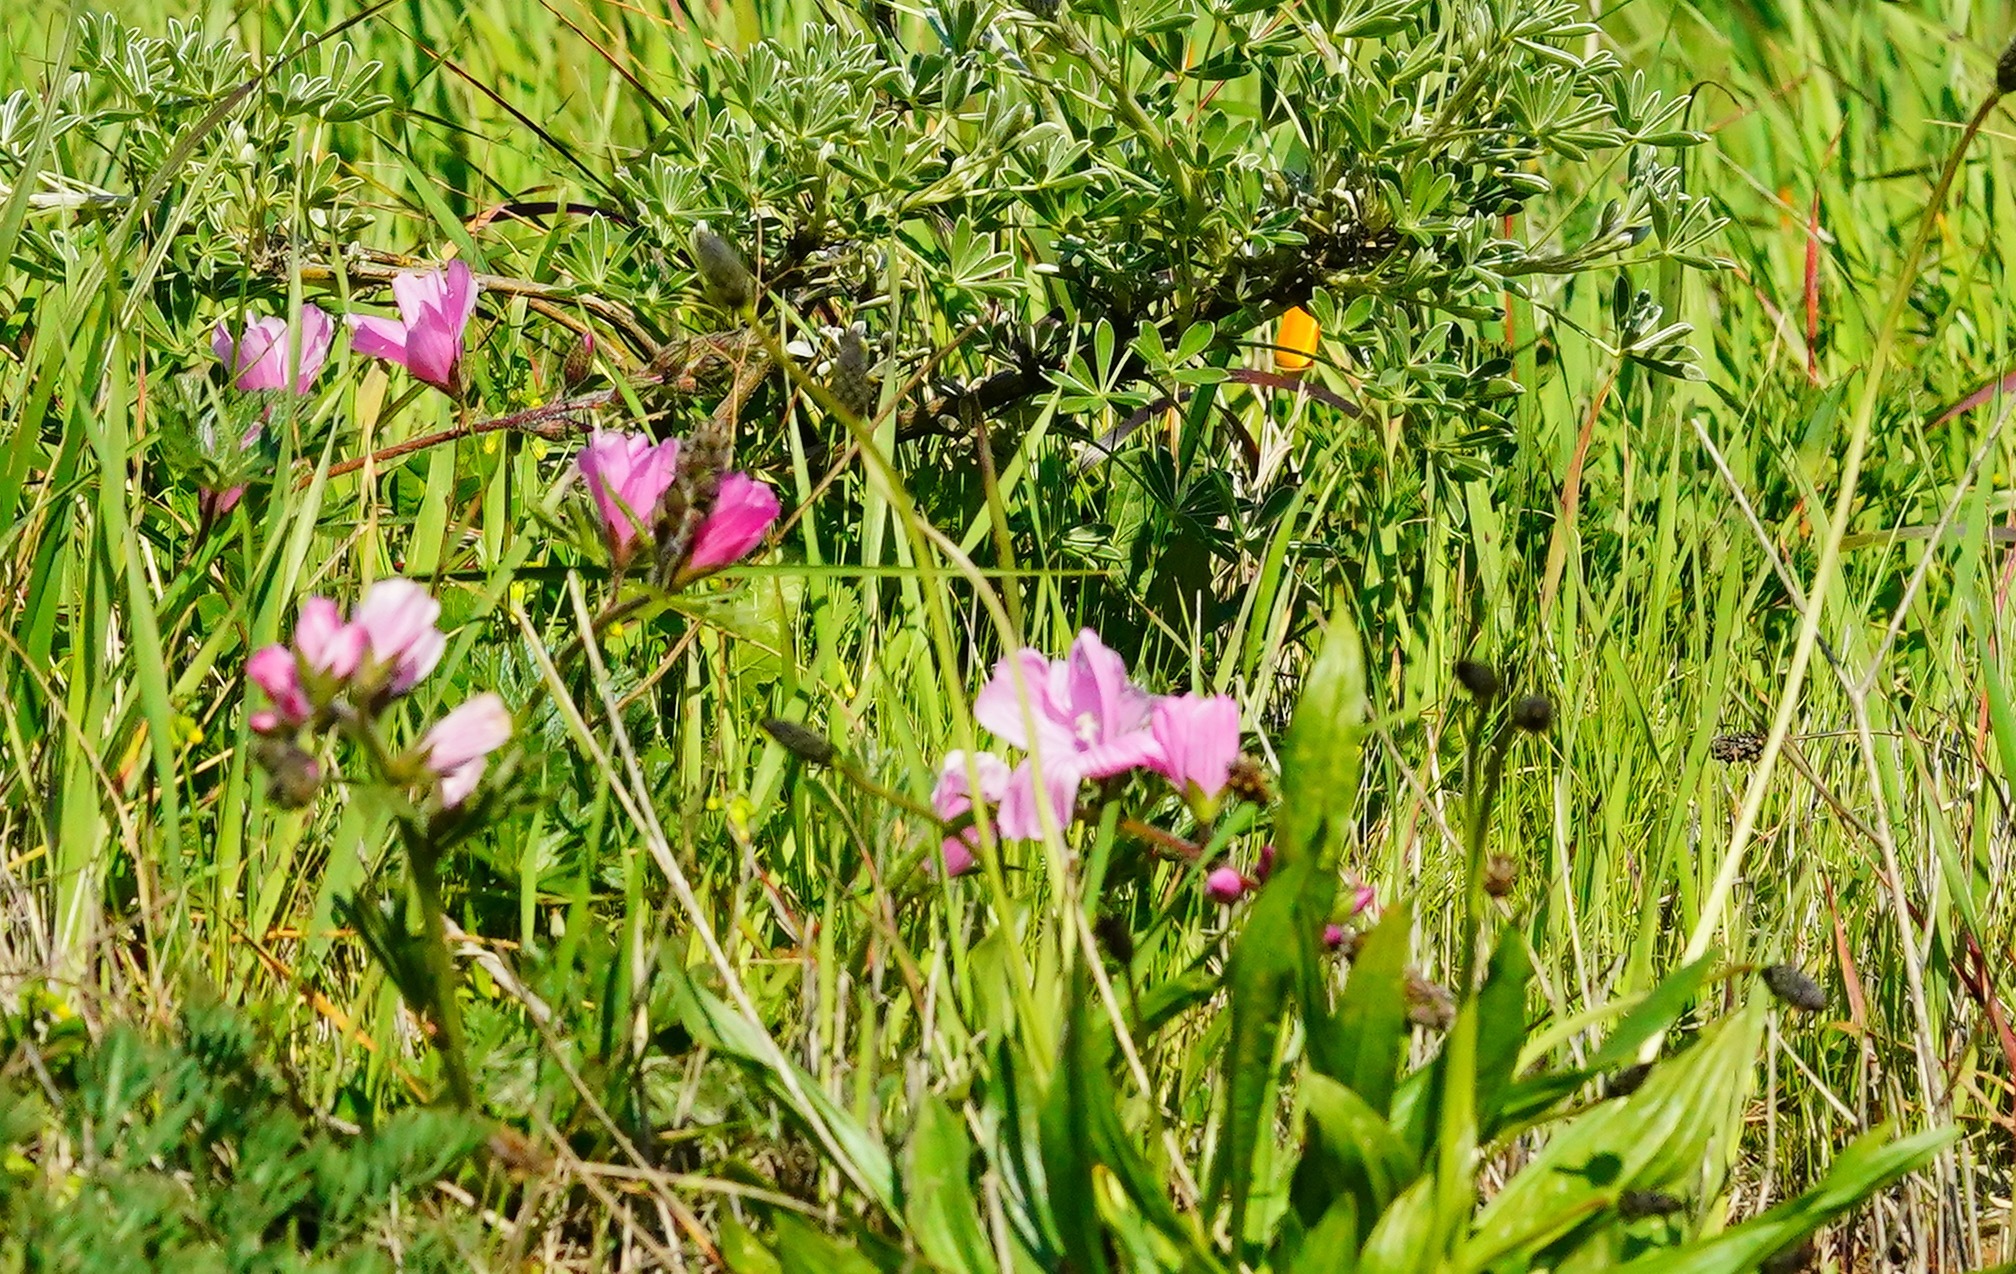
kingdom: Plantae
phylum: Tracheophyta
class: Magnoliopsida
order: Malvales
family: Malvaceae
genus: Sidalcea
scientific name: Sidalcea malviflora
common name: Greek mallow
